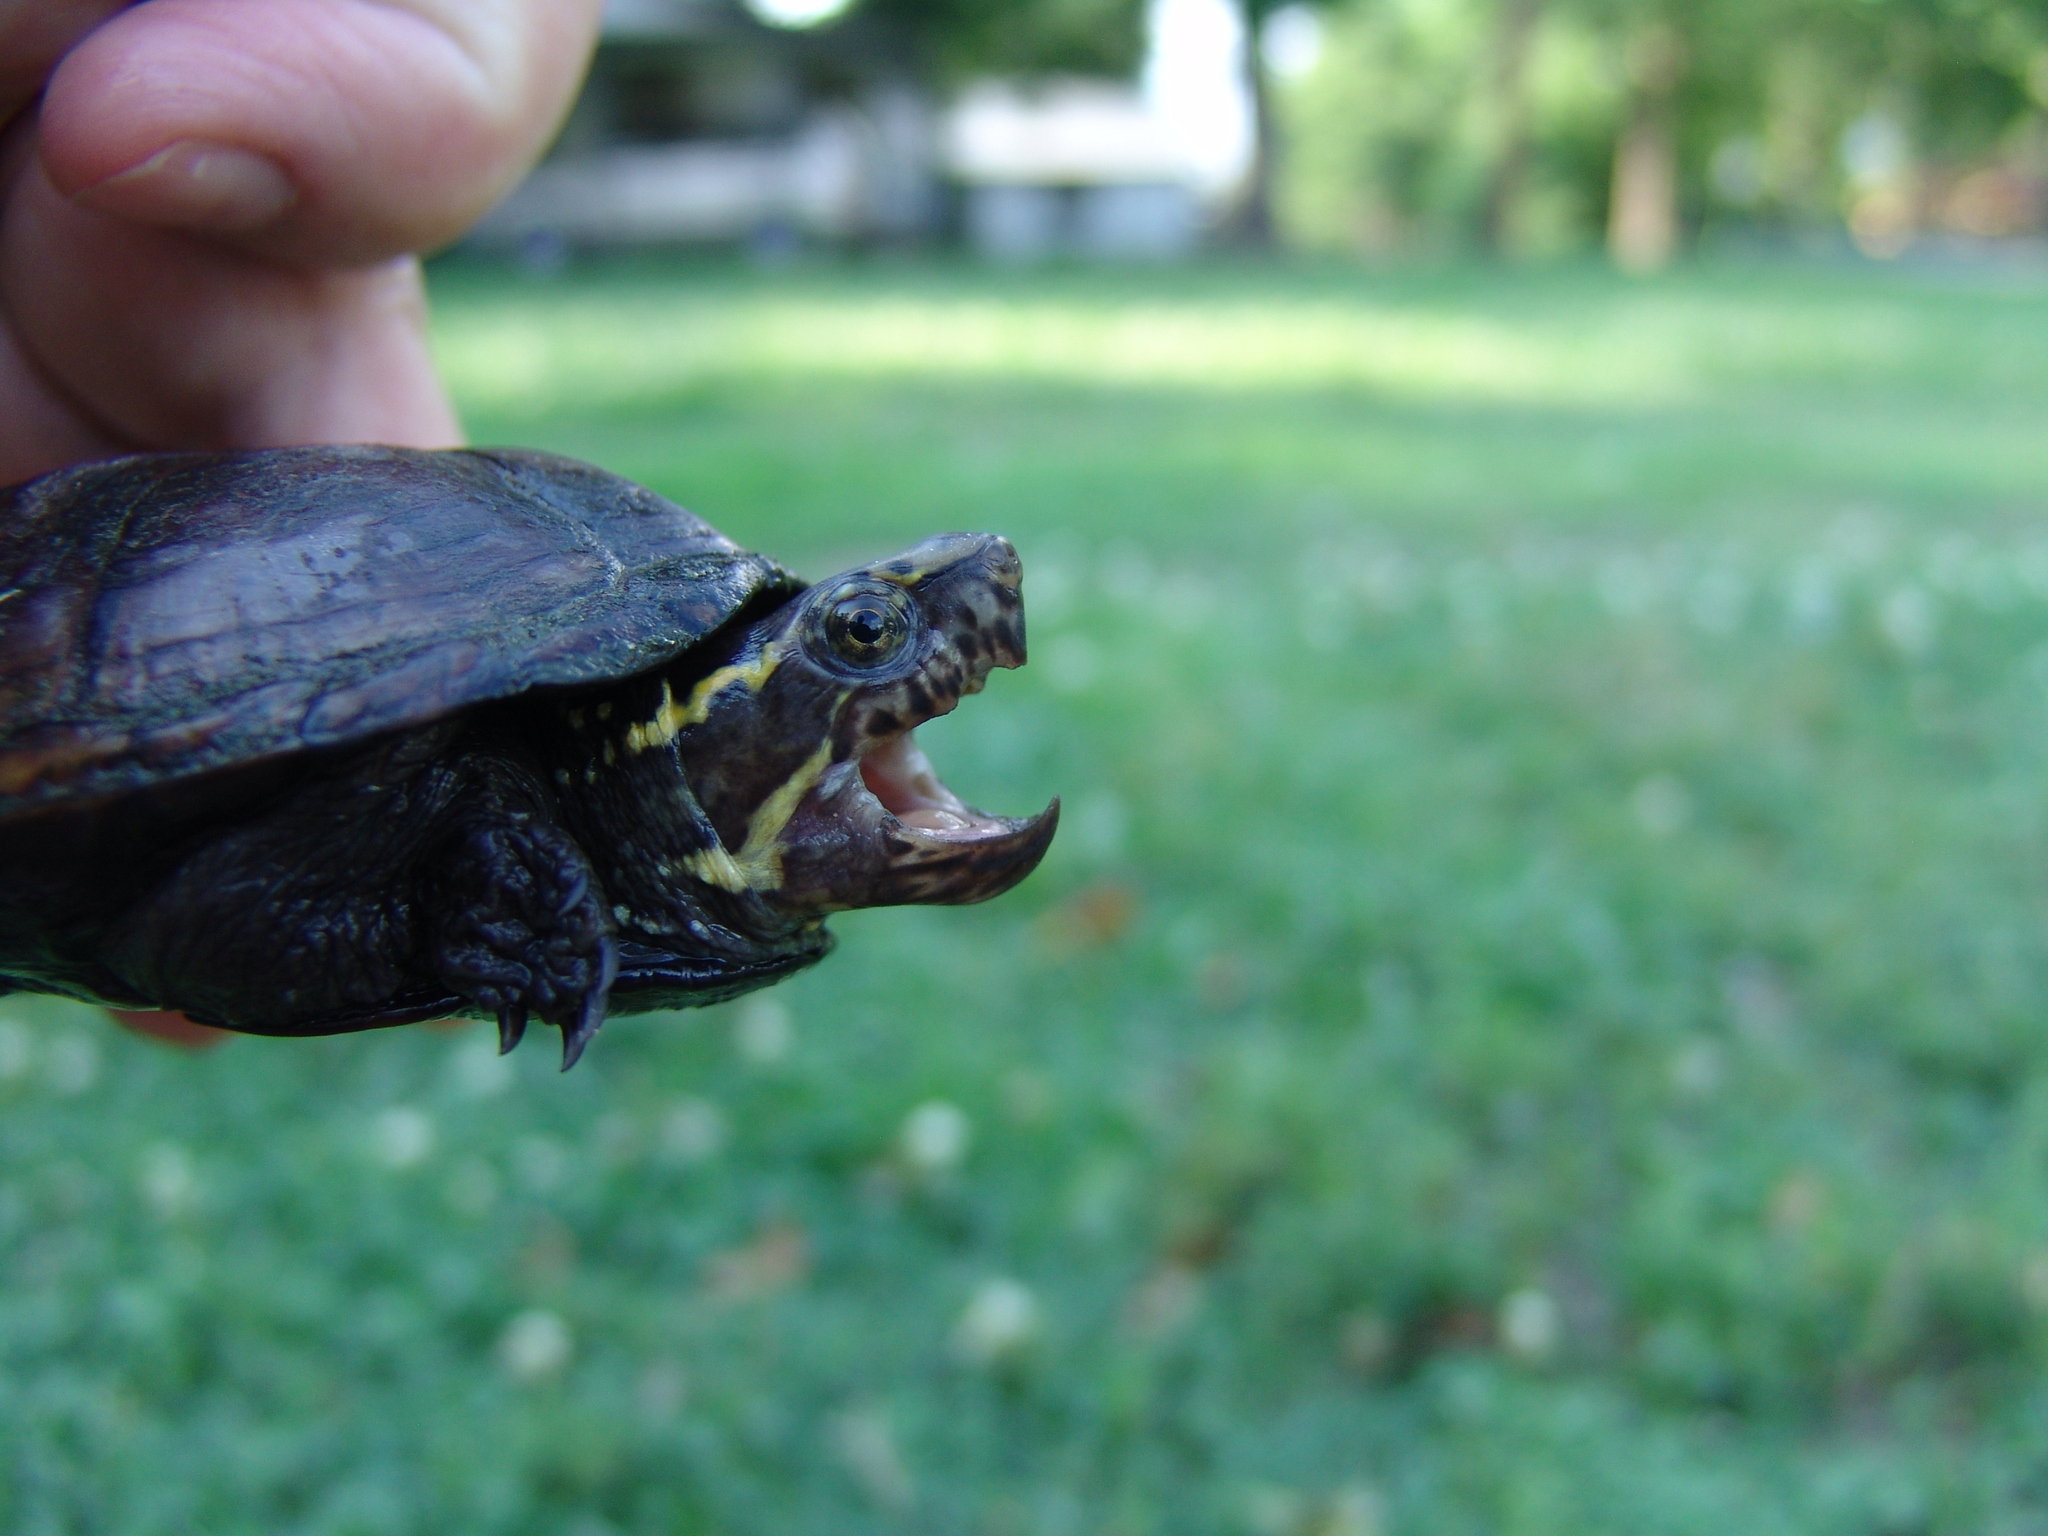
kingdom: Animalia
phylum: Chordata
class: Testudines
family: Kinosternidae
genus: Kinosternon
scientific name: Kinosternon subrubrum
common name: Eastern mud turtle
